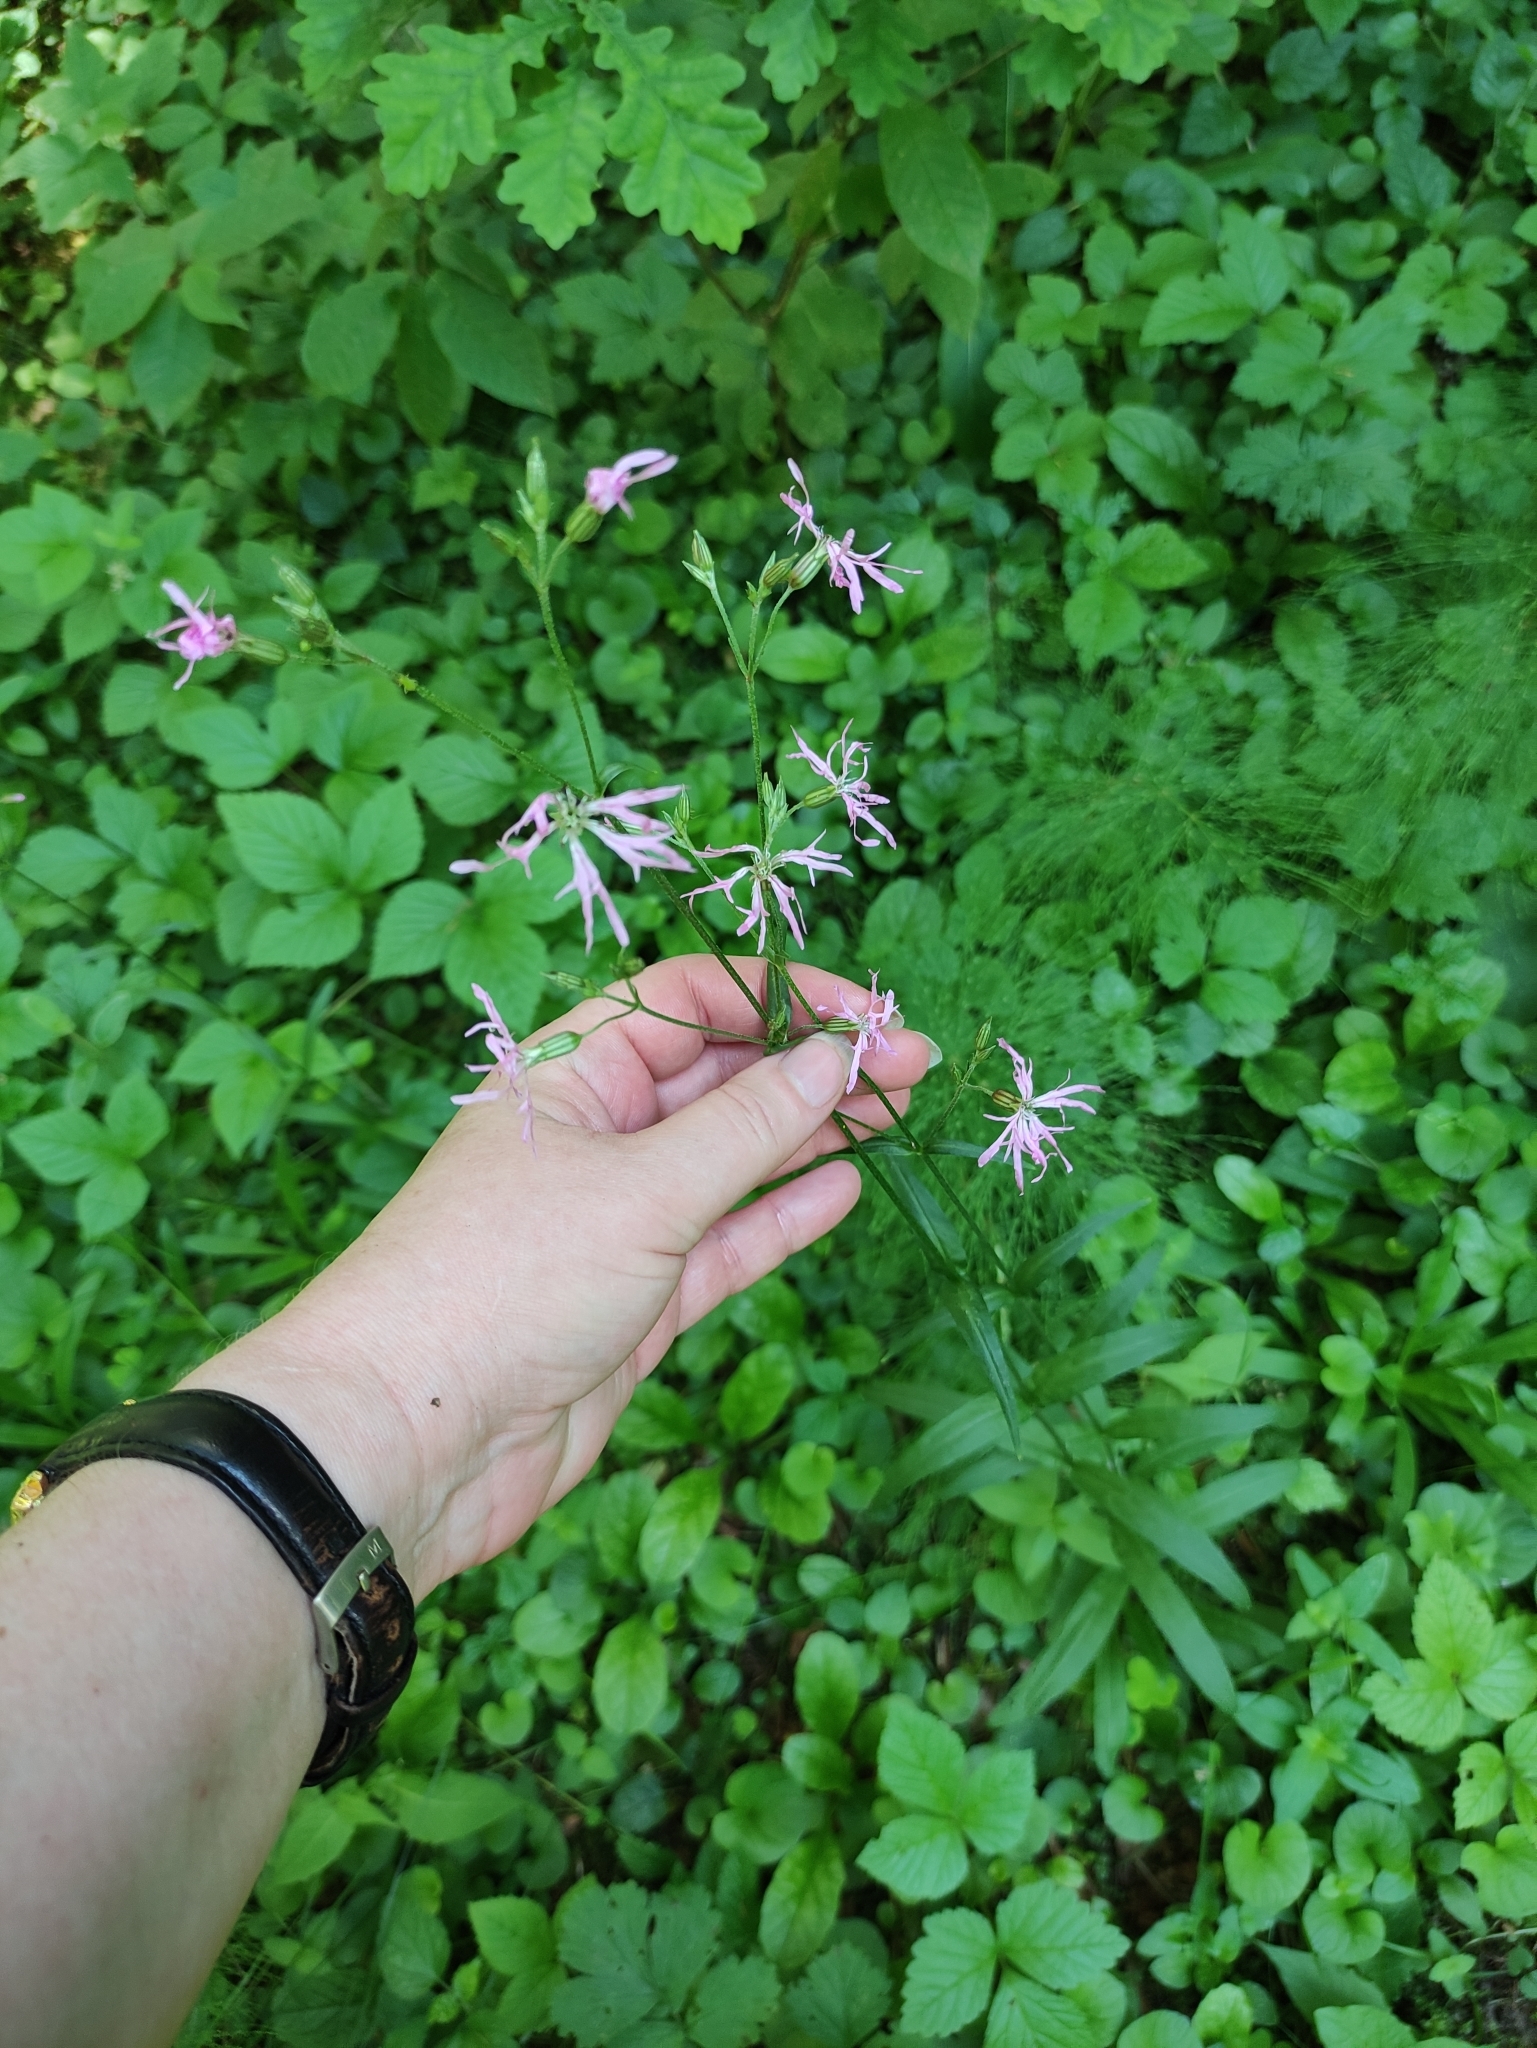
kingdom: Plantae
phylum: Tracheophyta
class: Magnoliopsida
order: Caryophyllales
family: Caryophyllaceae
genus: Silene
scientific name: Silene flos-cuculi
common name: Ragged-robin
